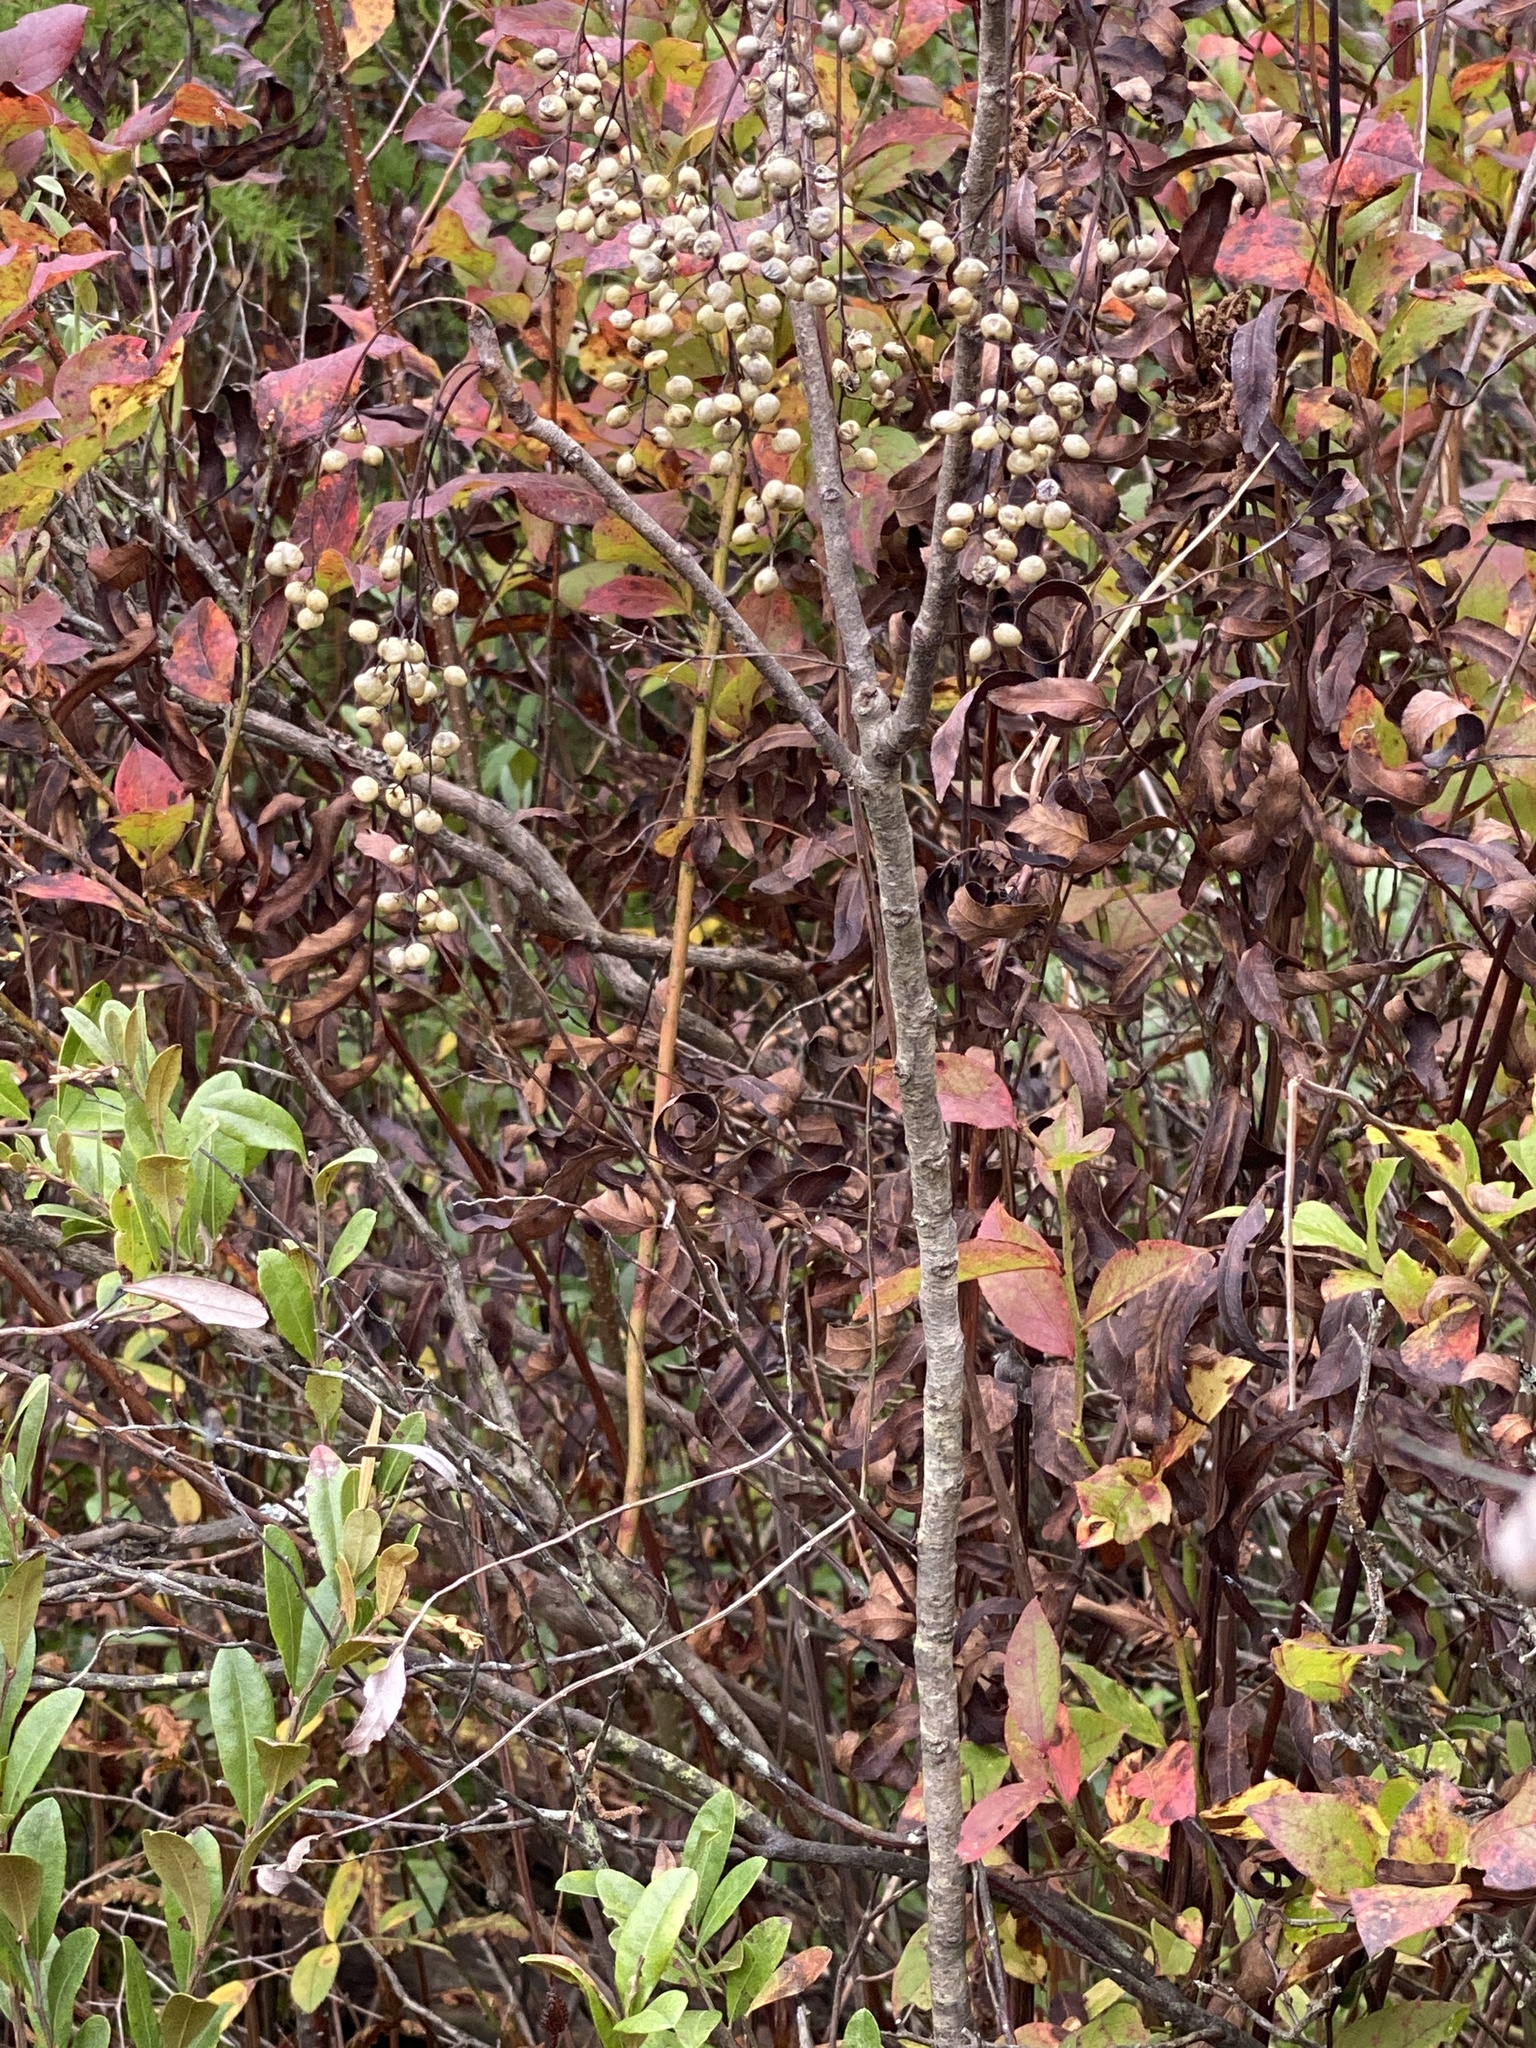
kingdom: Plantae
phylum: Tracheophyta
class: Magnoliopsida
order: Sapindales
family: Anacardiaceae
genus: Toxicodendron
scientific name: Toxicodendron vernix
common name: Poison sumac
